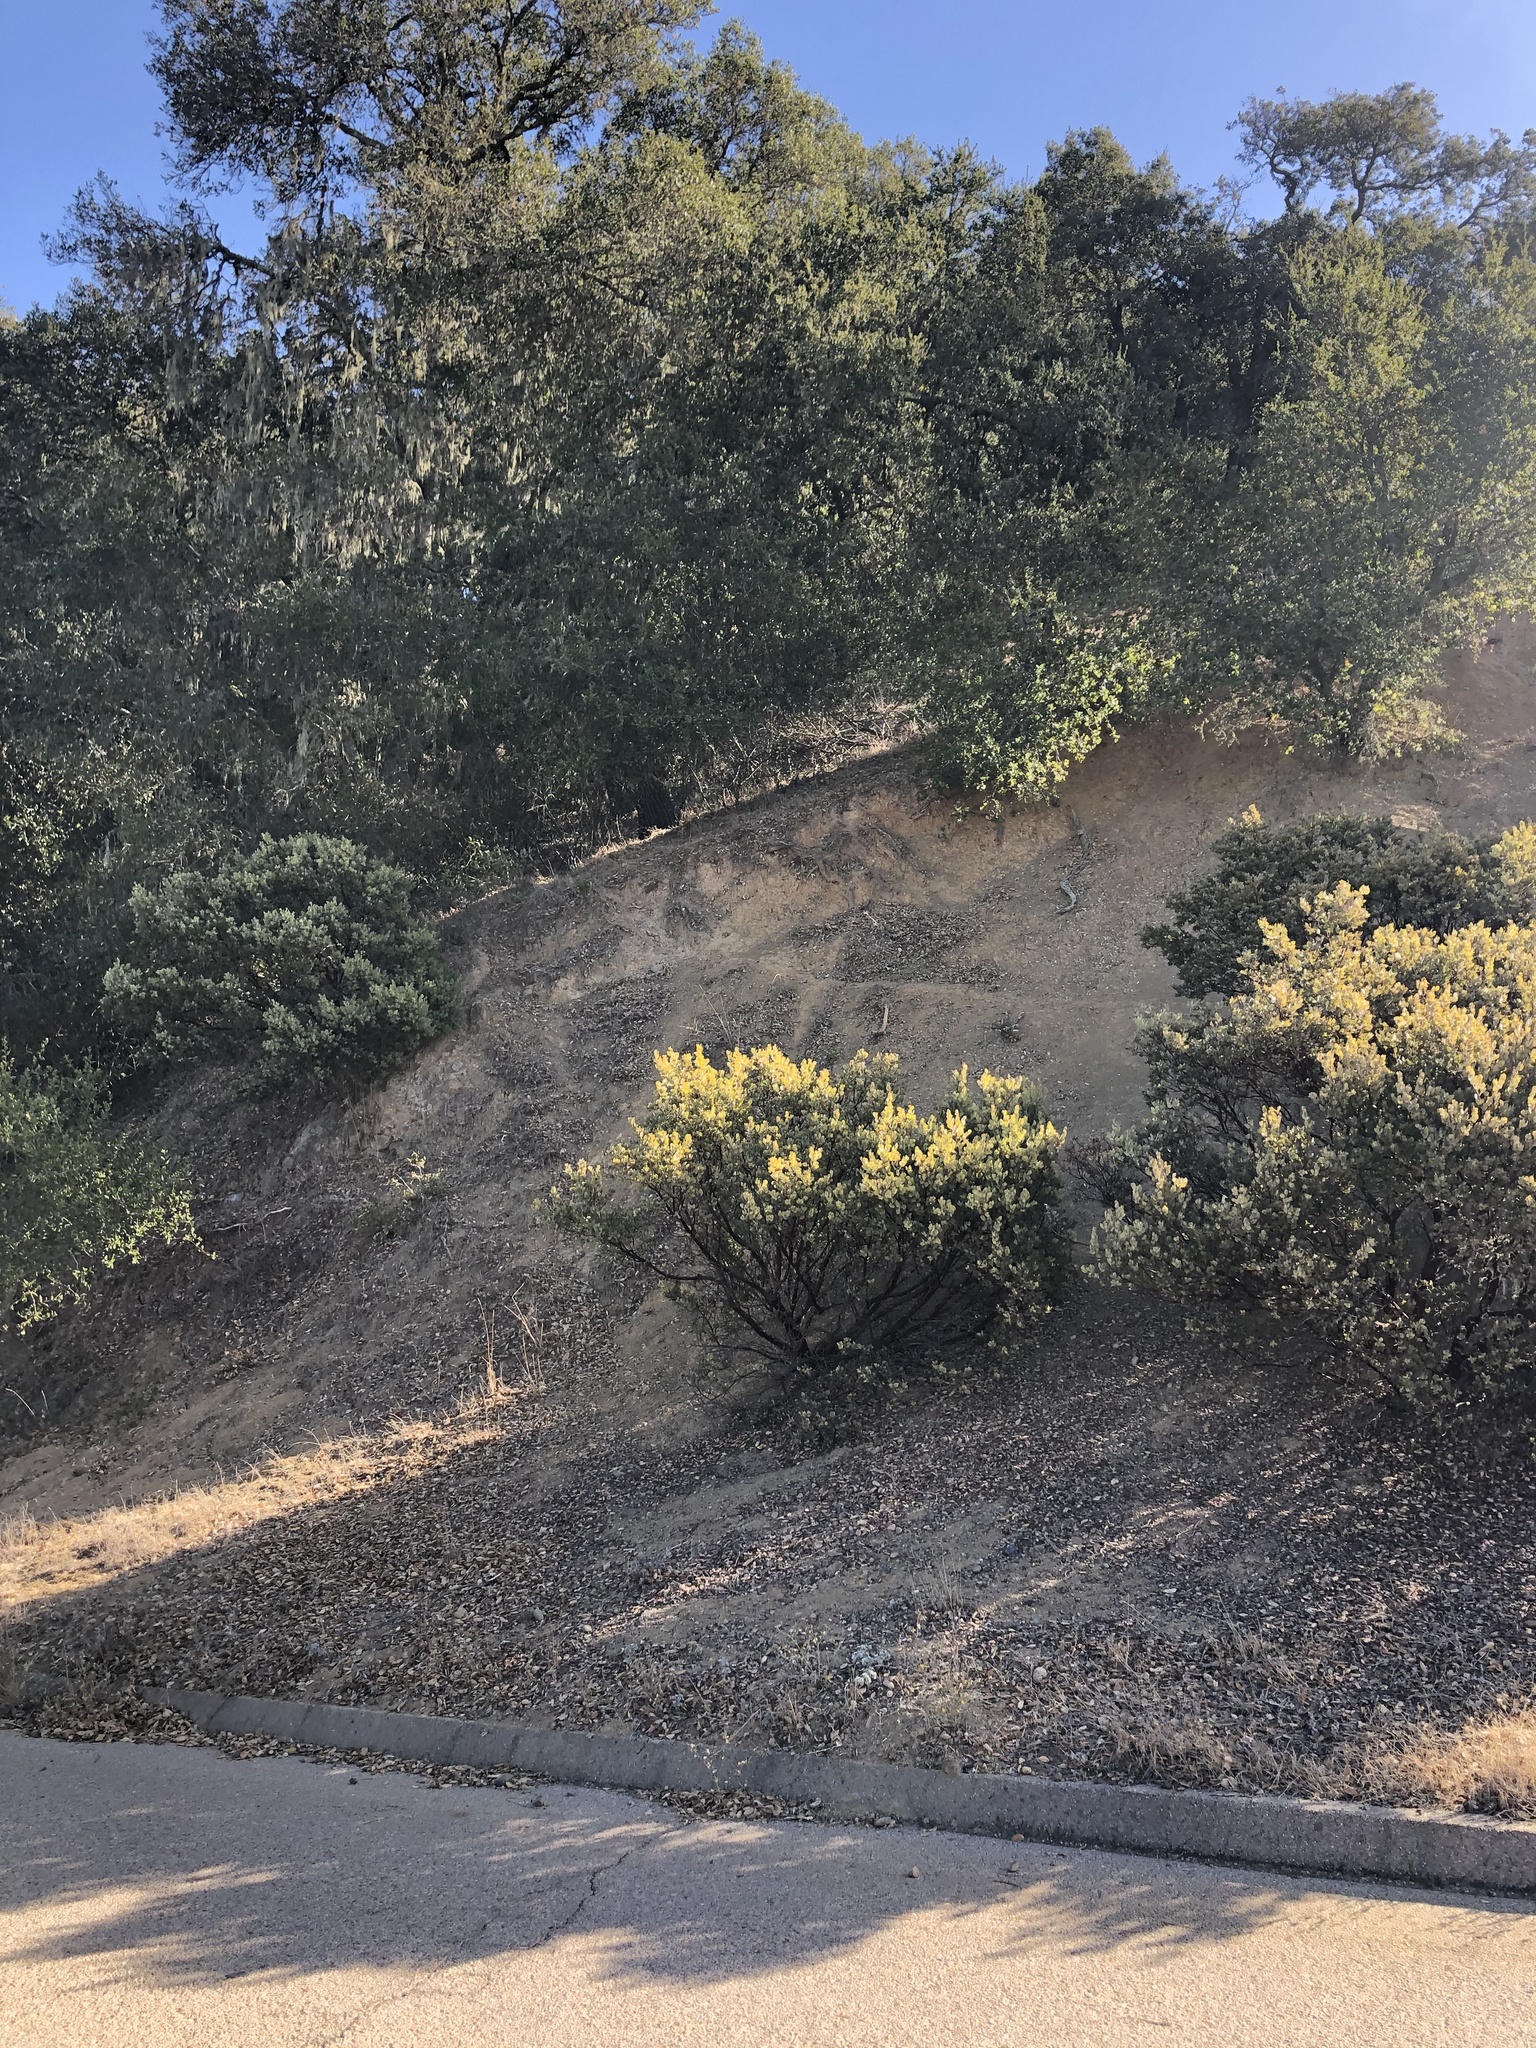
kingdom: Plantae
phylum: Tracheophyta
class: Magnoliopsida
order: Ericales
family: Ericaceae
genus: Arctostaphylos
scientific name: Arctostaphylos obispoensis
